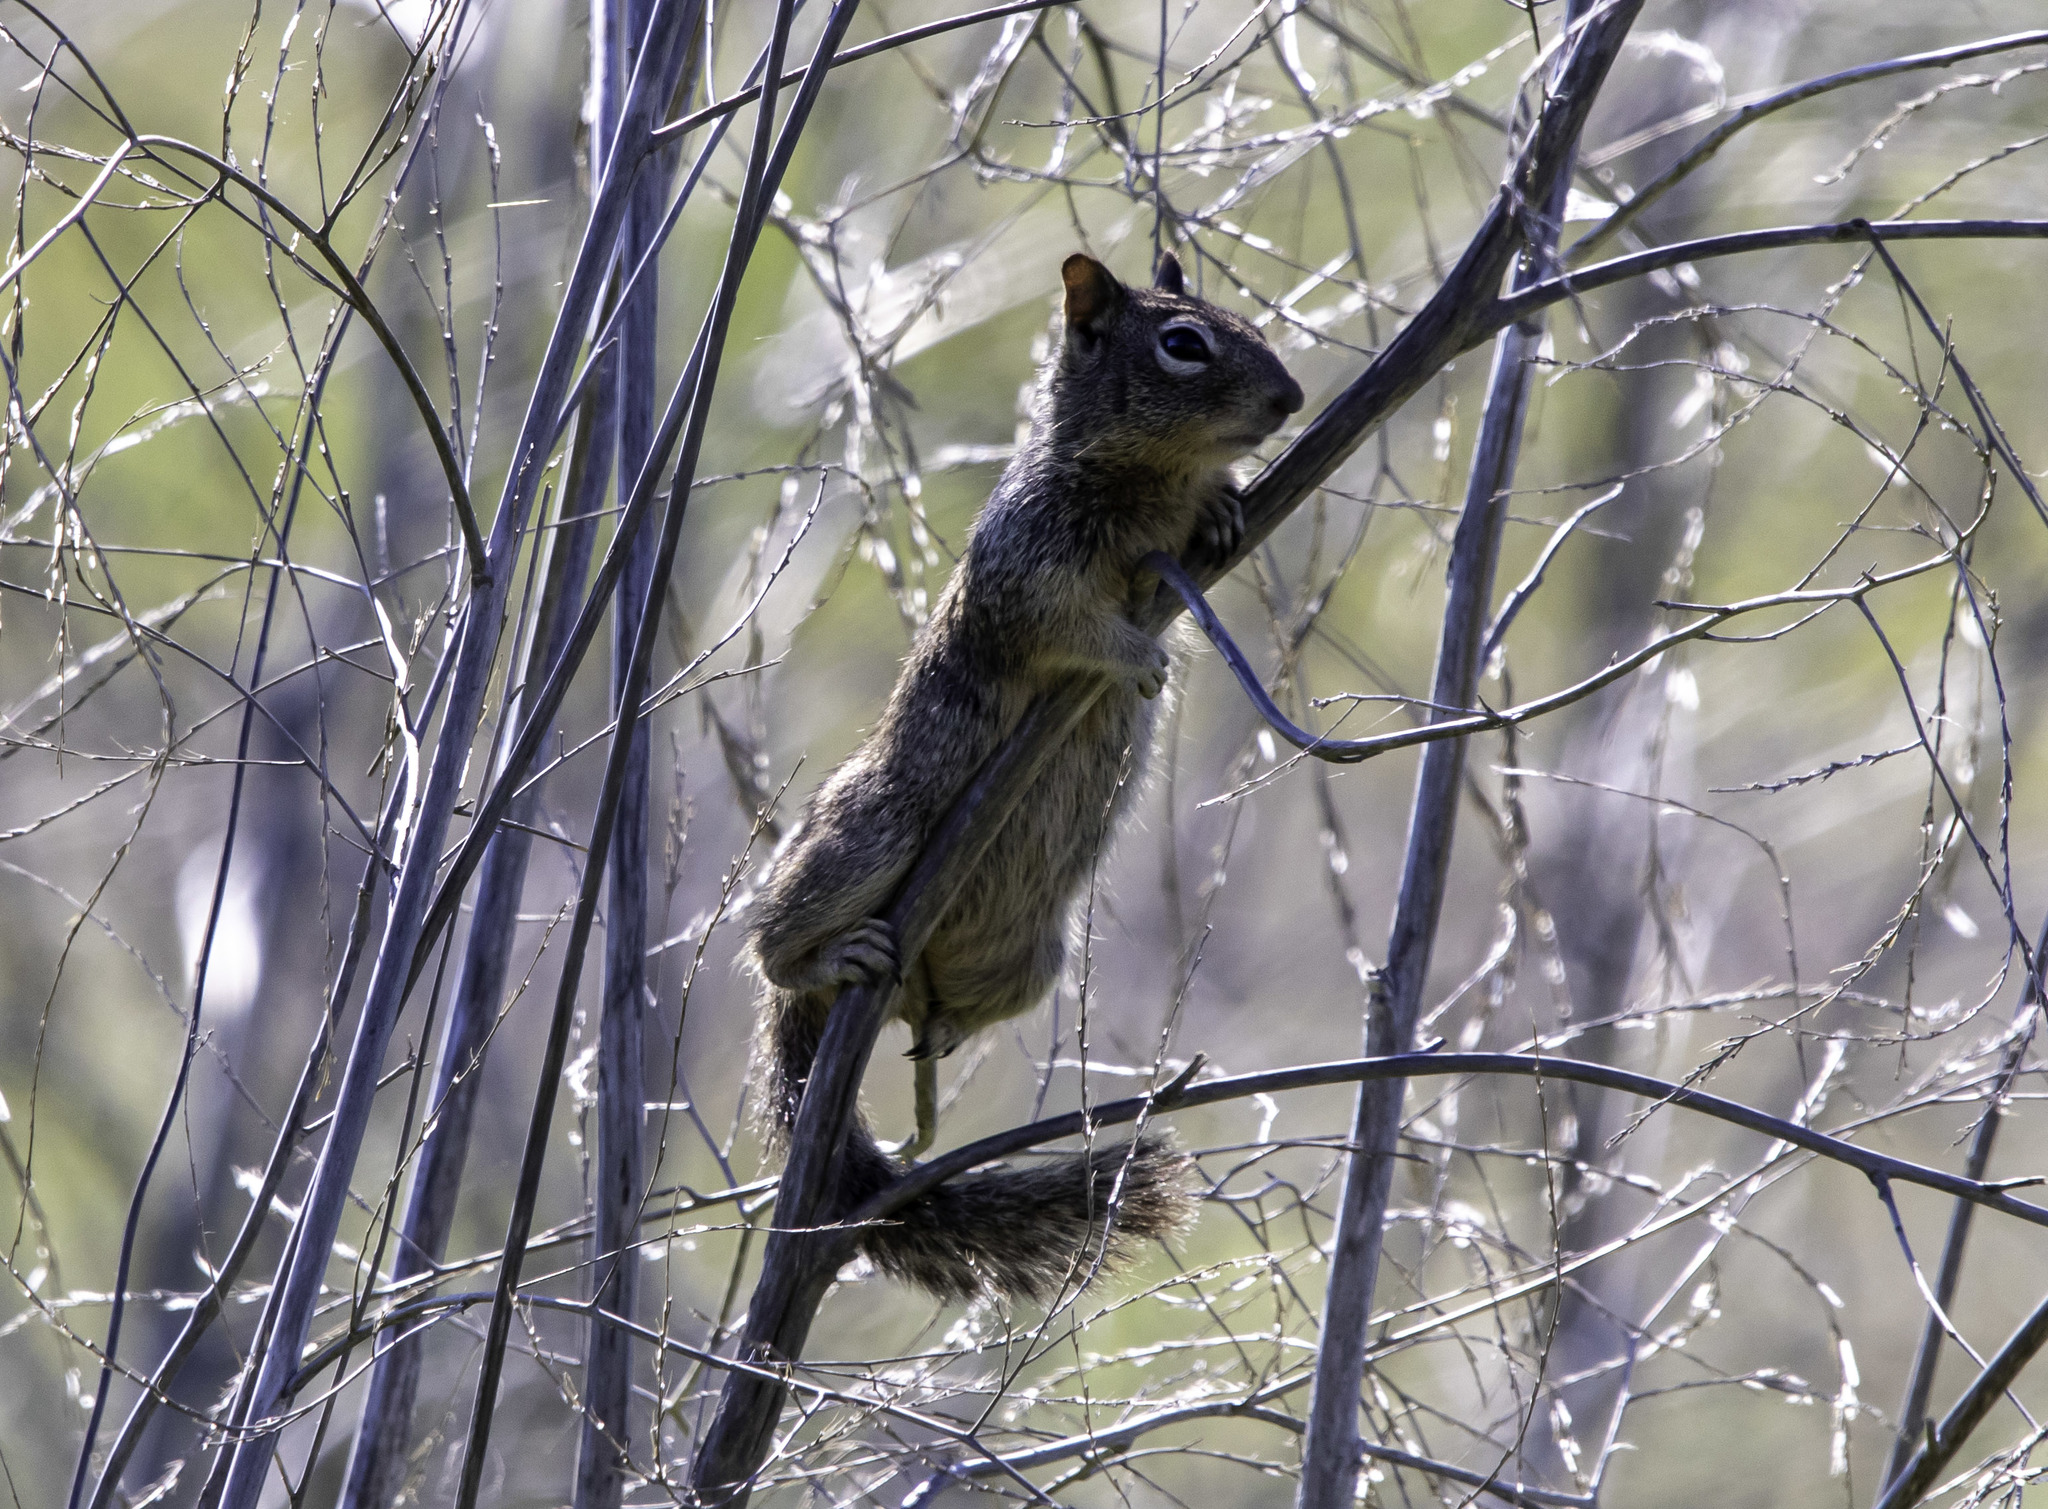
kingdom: Animalia
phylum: Chordata
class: Mammalia
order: Rodentia
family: Sciuridae
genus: Otospermophilus
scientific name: Otospermophilus beecheyi
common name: California ground squirrel
